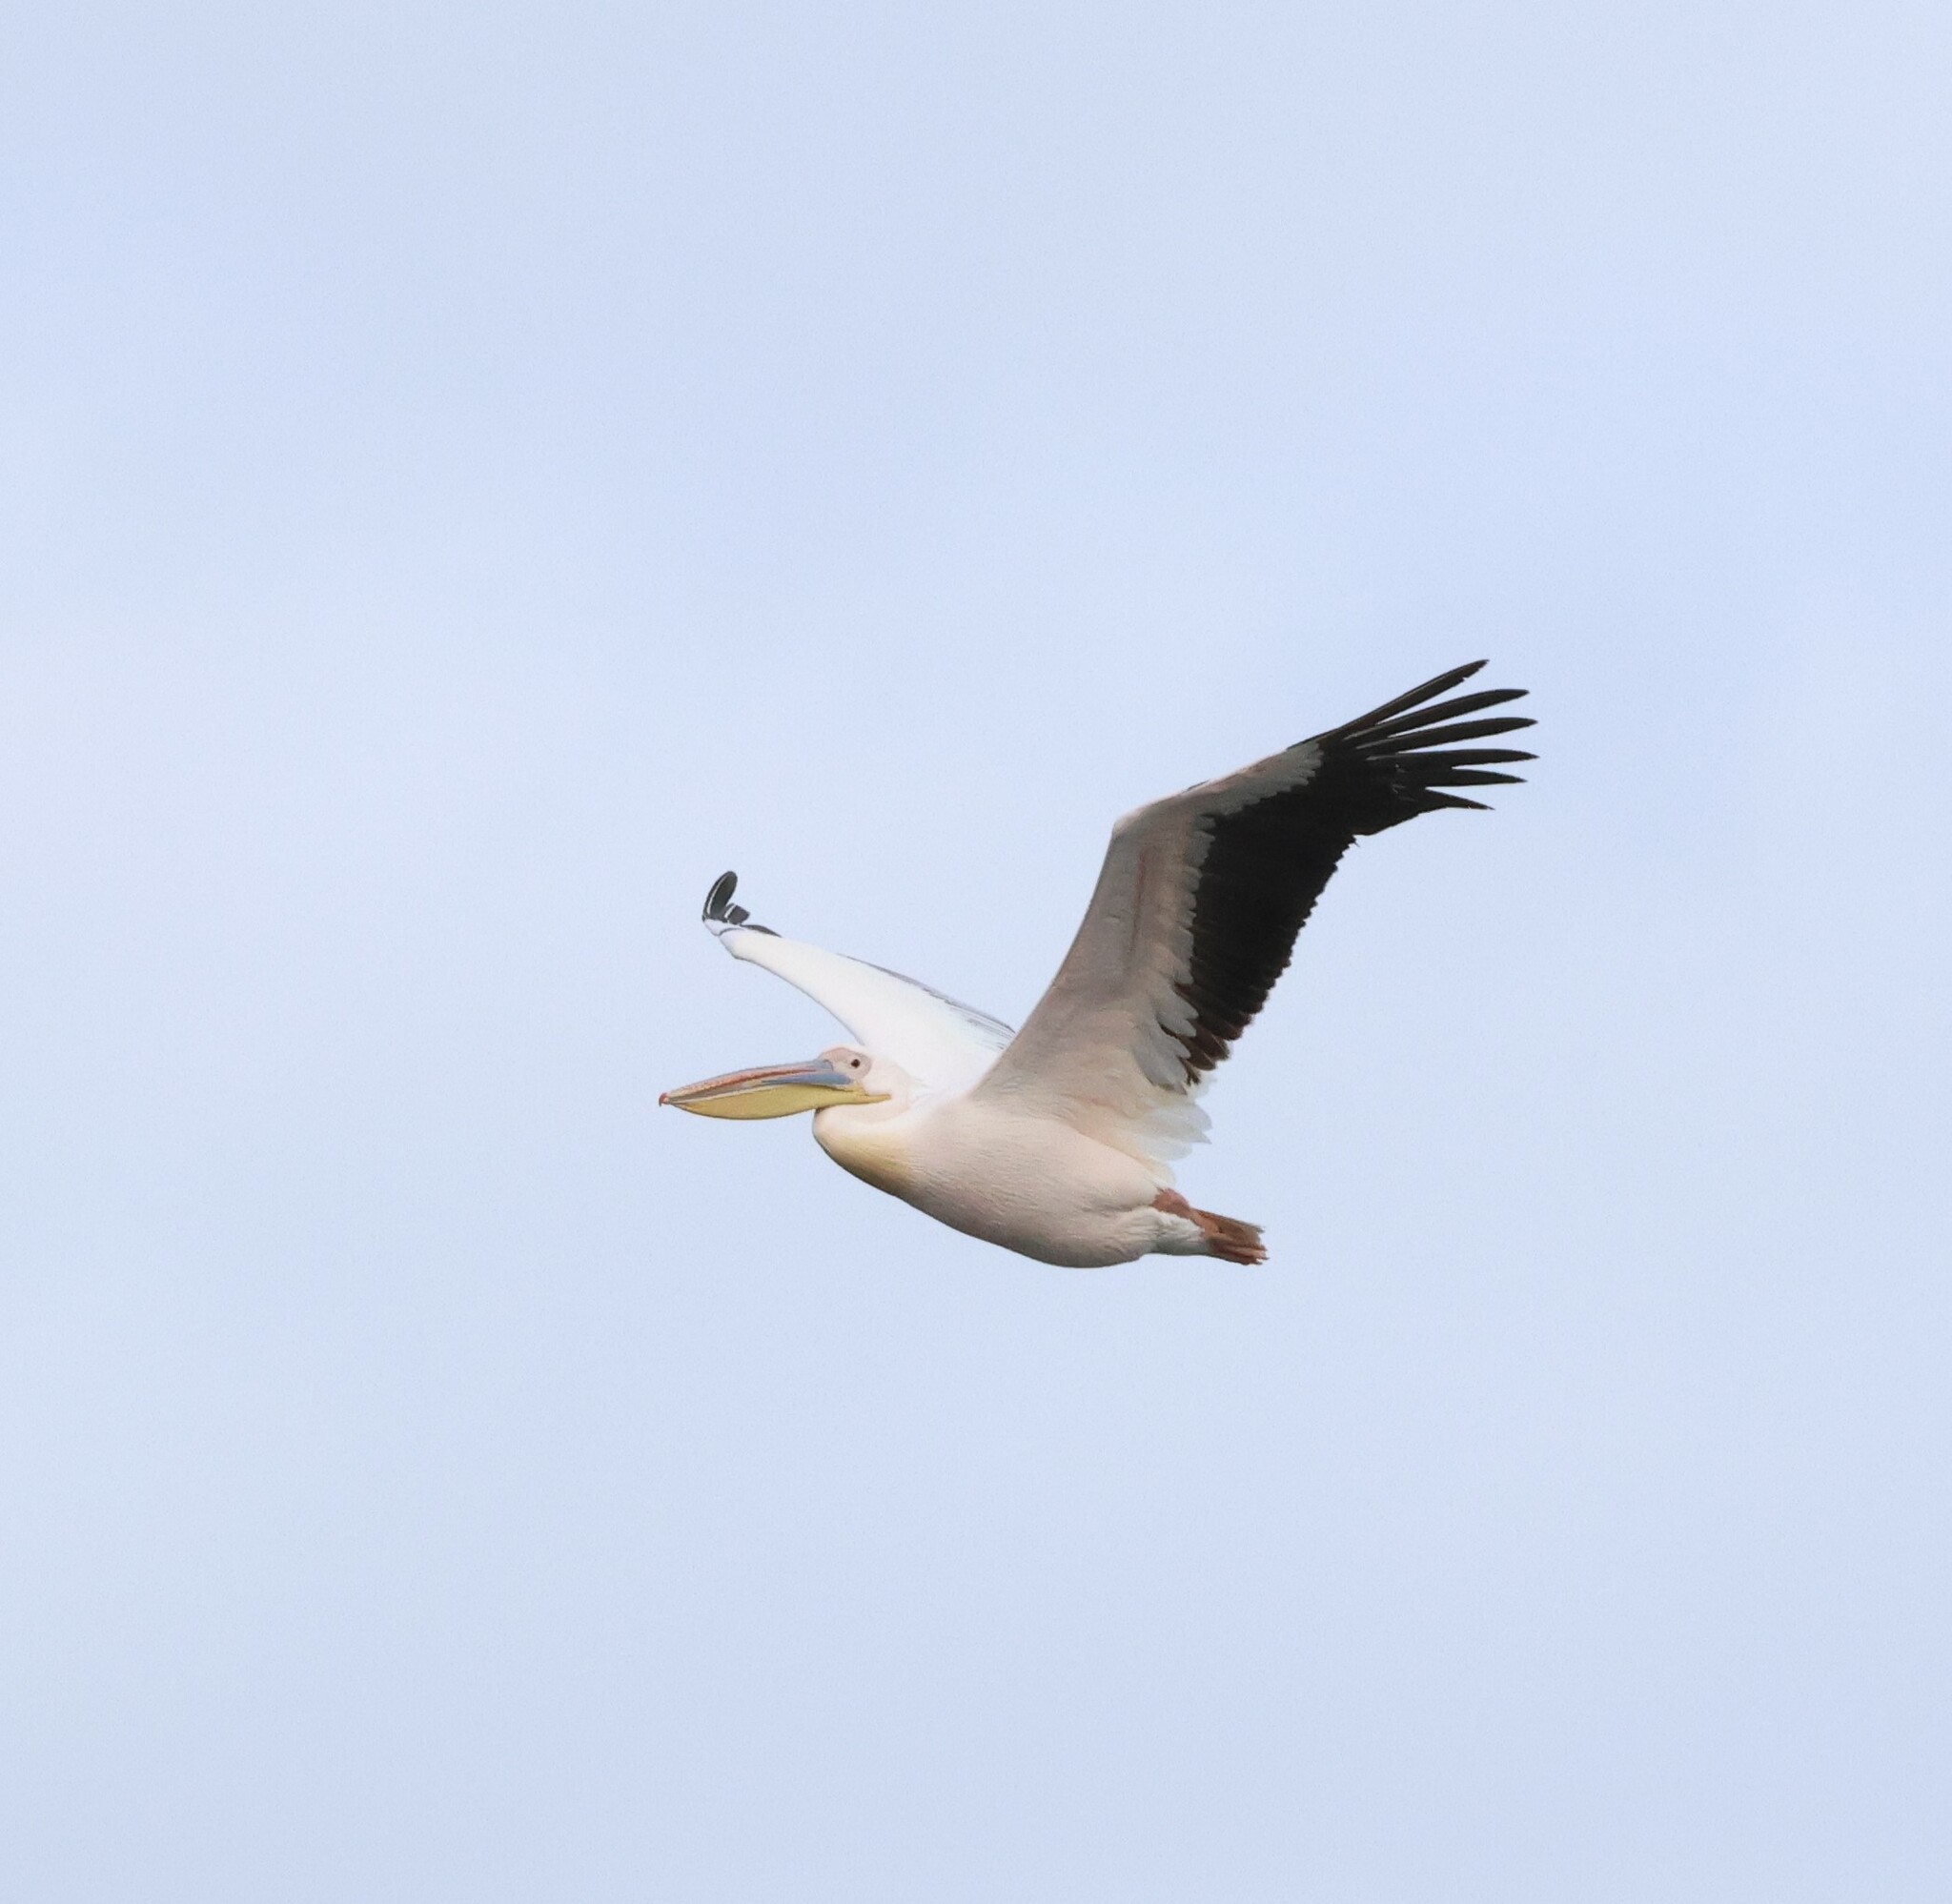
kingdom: Animalia
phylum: Chordata
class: Aves
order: Pelecaniformes
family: Pelecanidae
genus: Pelecanus
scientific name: Pelecanus onocrotalus
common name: Great white pelican
